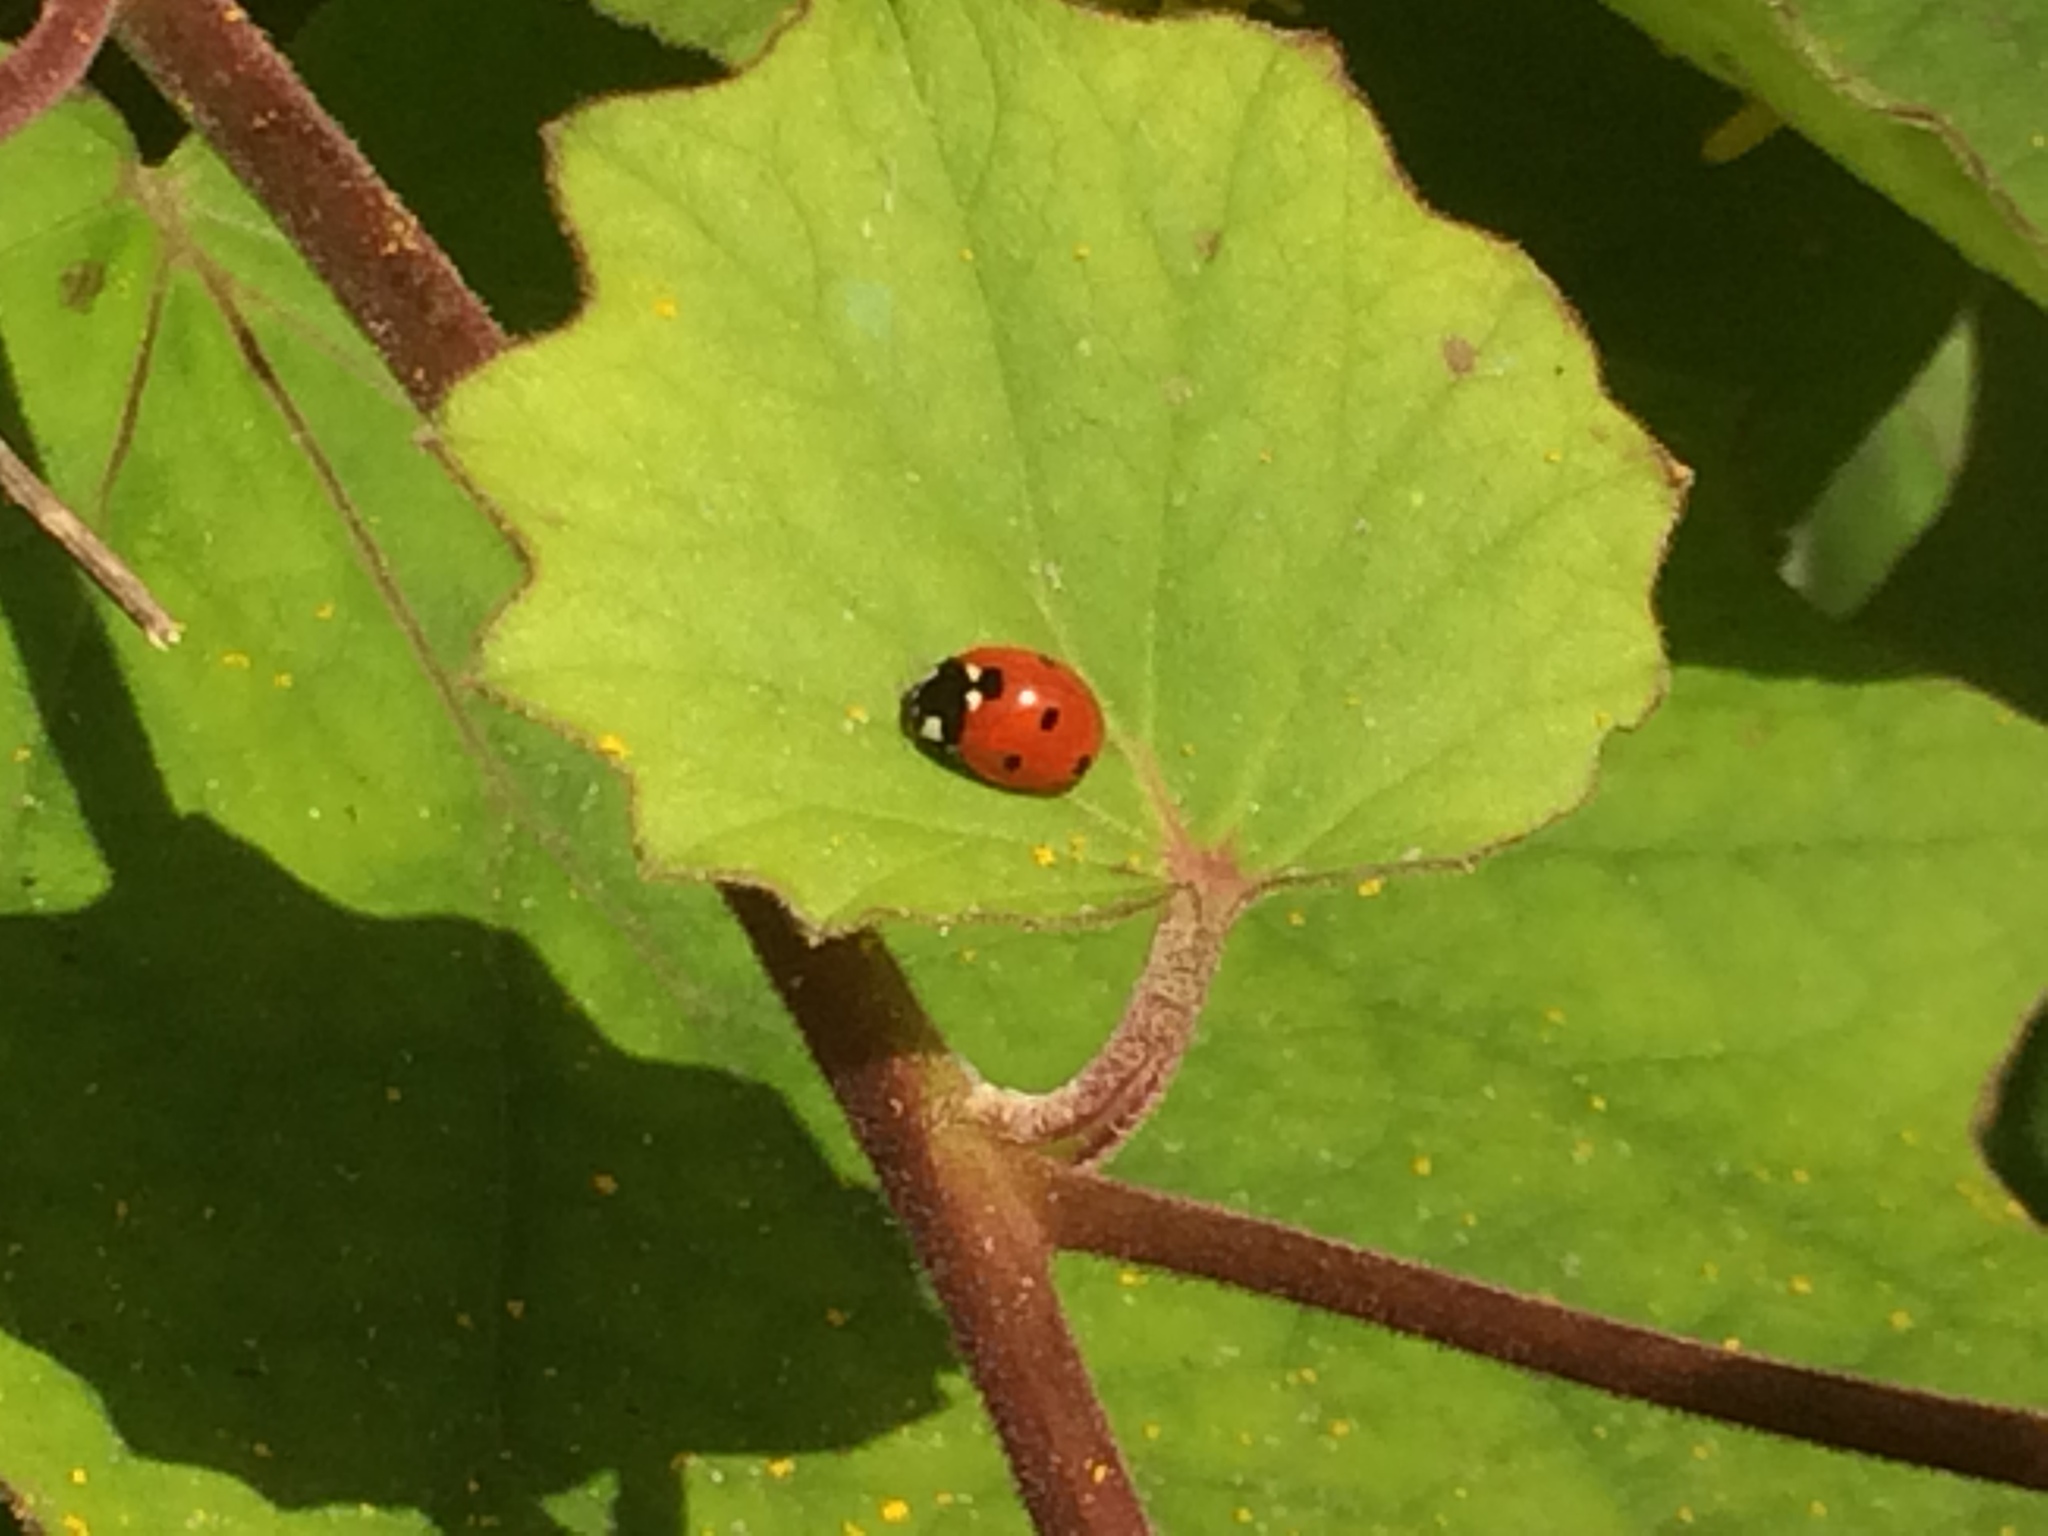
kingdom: Animalia
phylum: Arthropoda
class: Insecta
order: Coleoptera
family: Coccinellidae
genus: Coccinella
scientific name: Coccinella septempunctata
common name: Sevenspotted lady beetle
